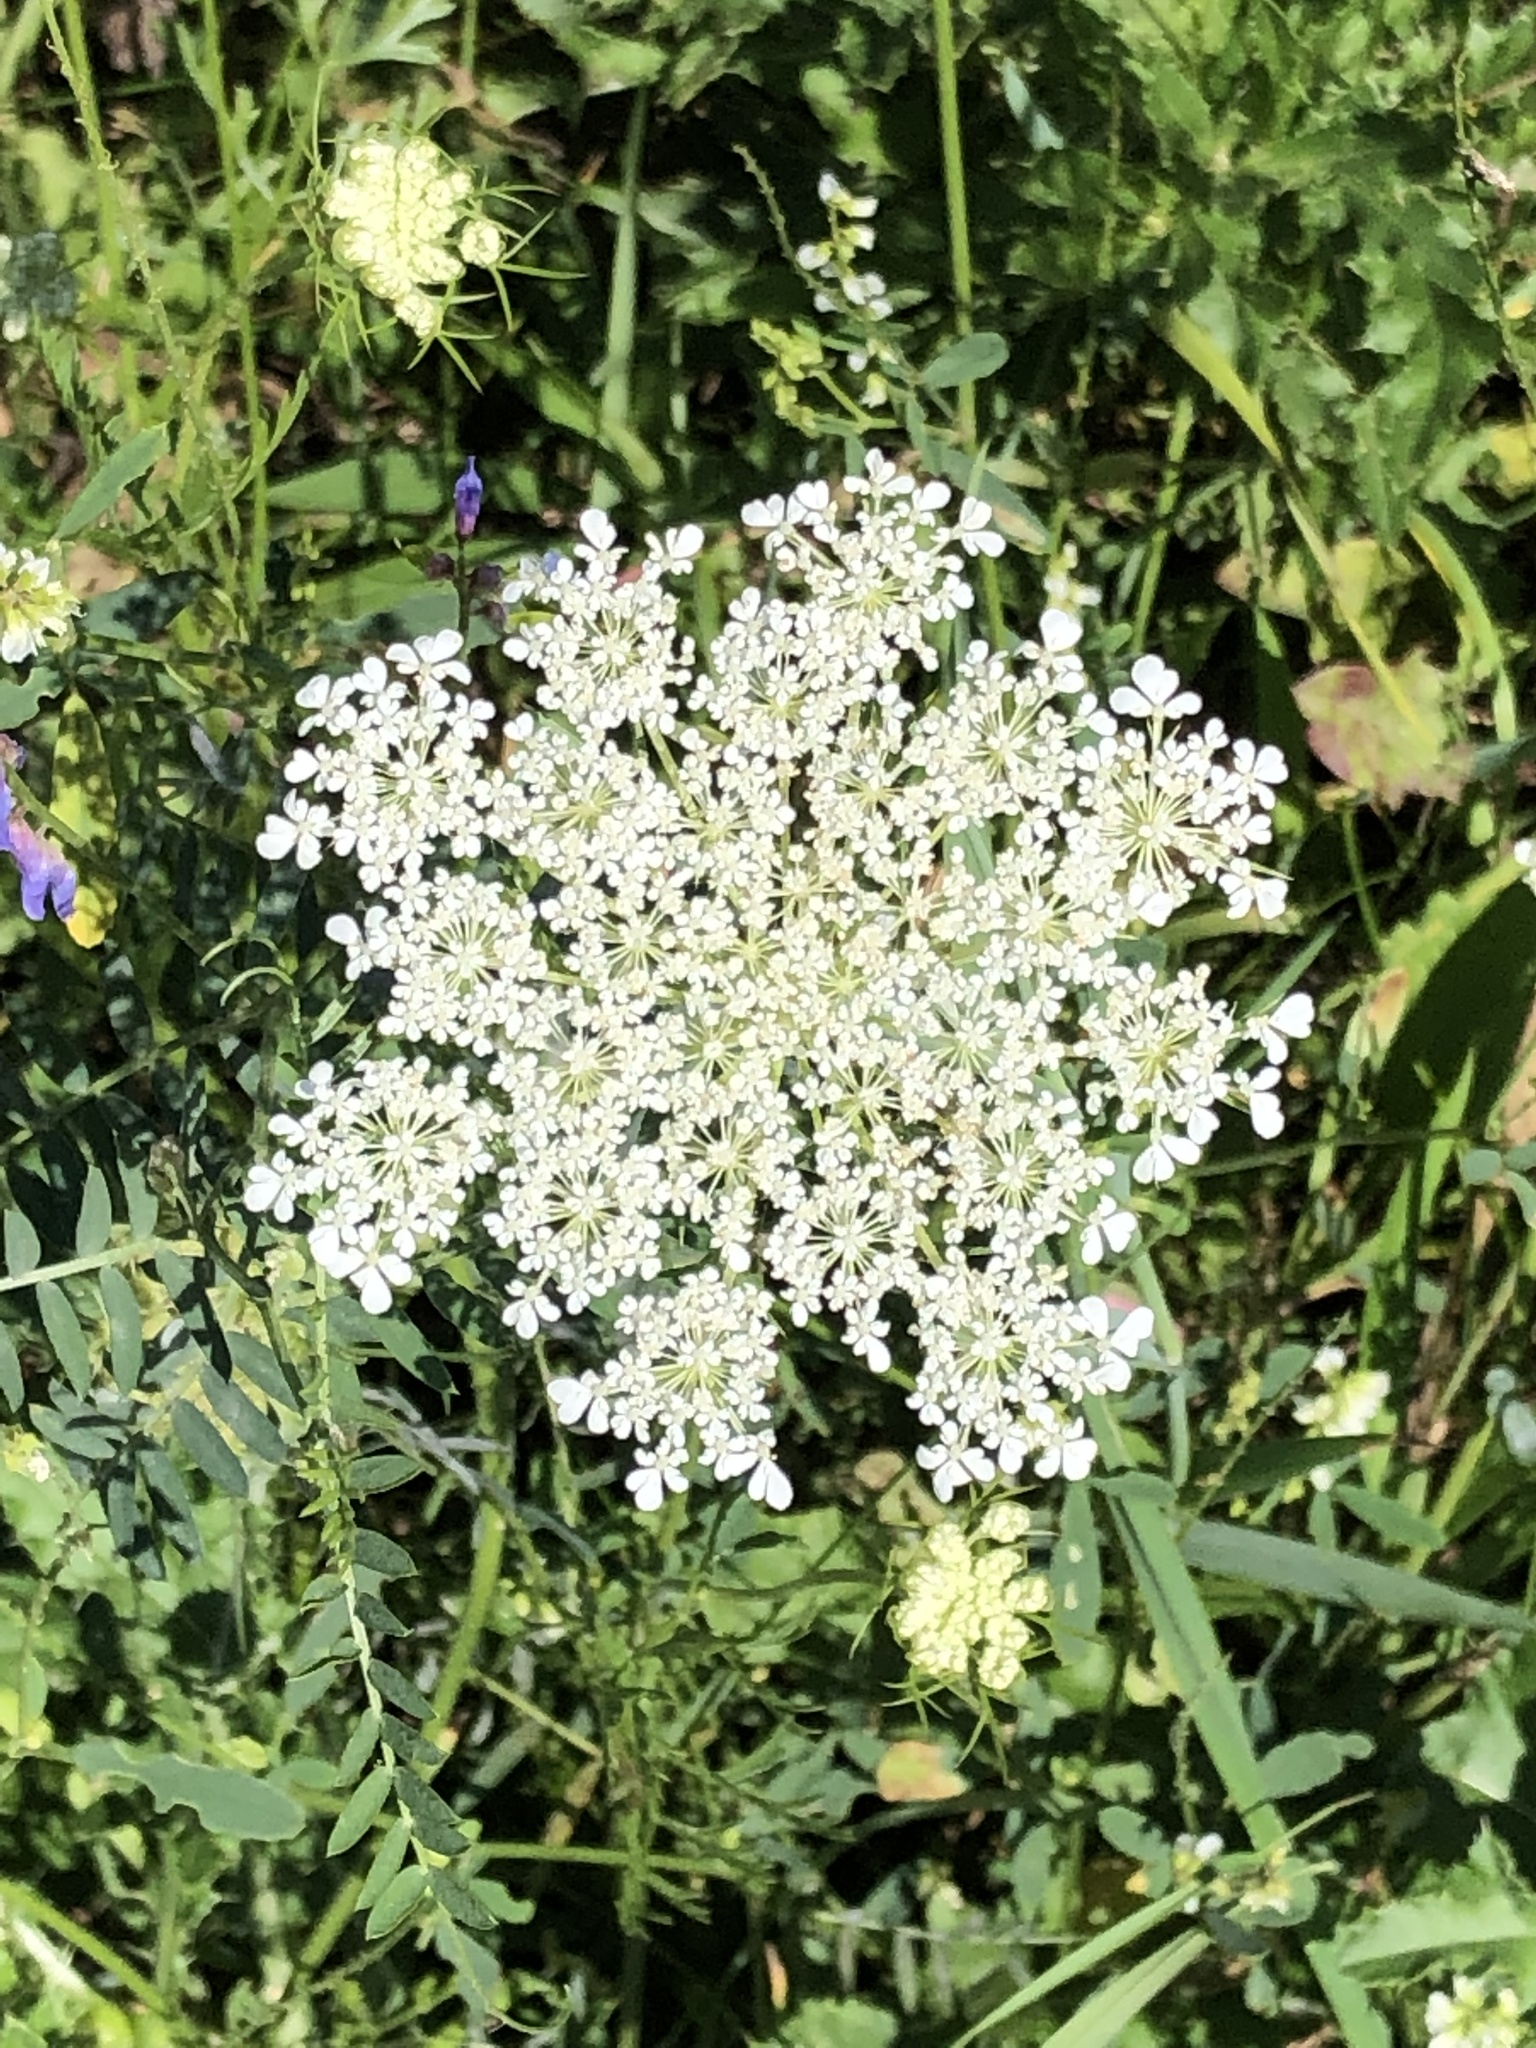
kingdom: Plantae
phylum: Tracheophyta
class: Magnoliopsida
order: Apiales
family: Apiaceae
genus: Daucus
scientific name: Daucus carota
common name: Wild carrot
